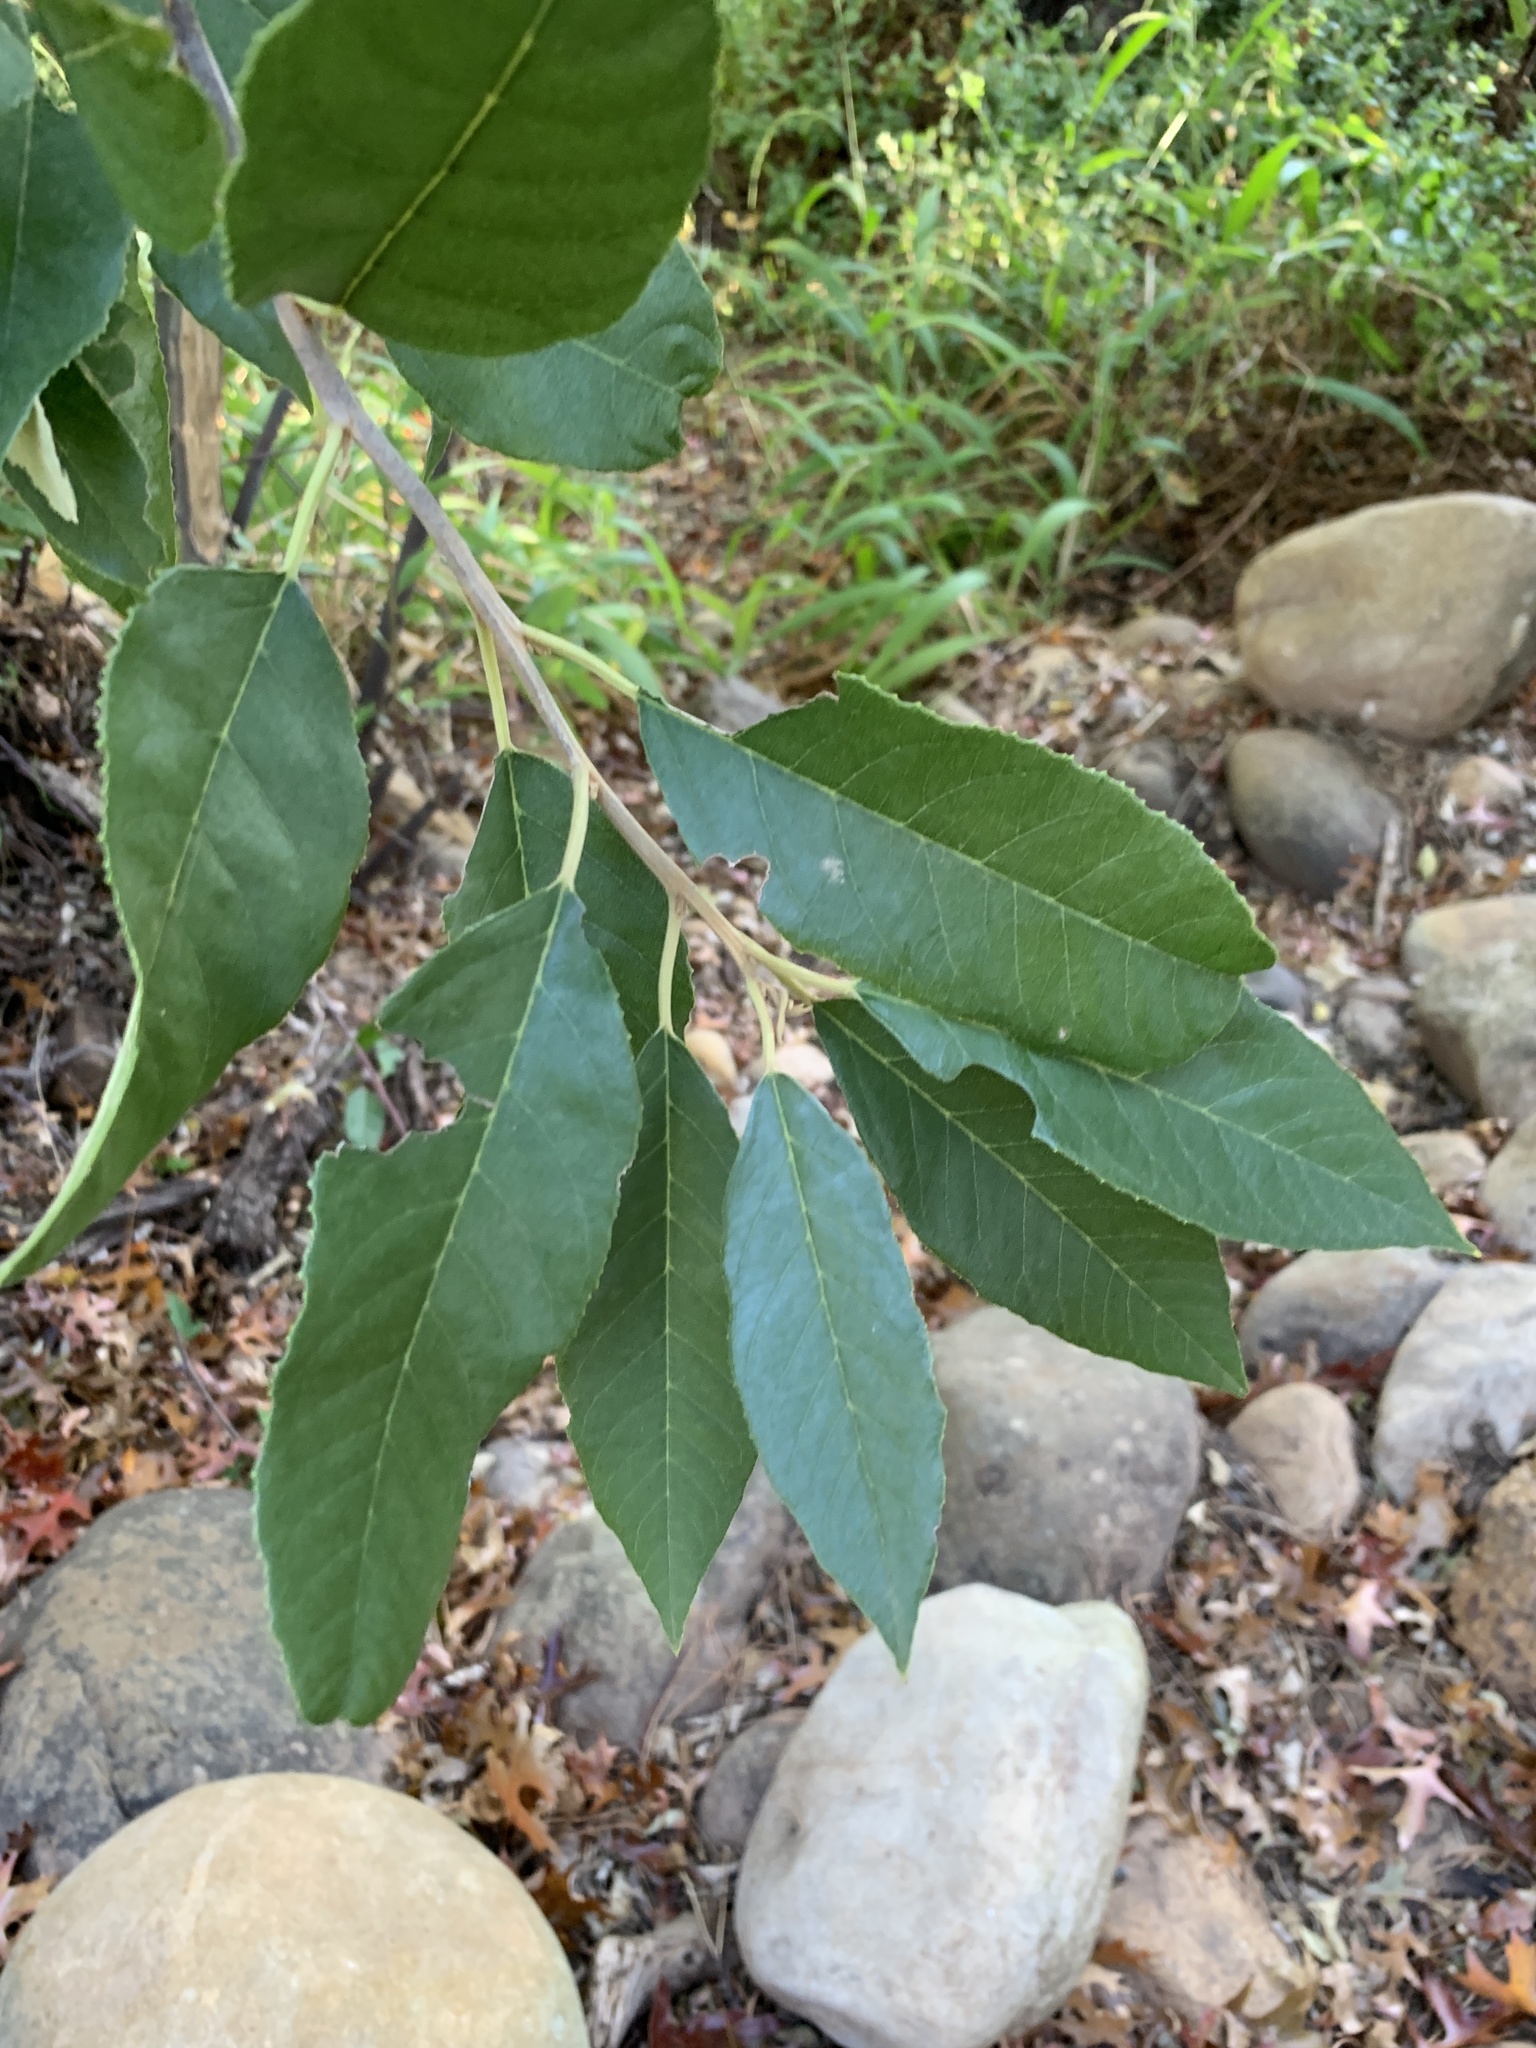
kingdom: Plantae
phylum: Tracheophyta
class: Magnoliopsida
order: Malpighiales
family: Achariaceae
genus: Kiggelaria
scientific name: Kiggelaria africana
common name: Wild peach
